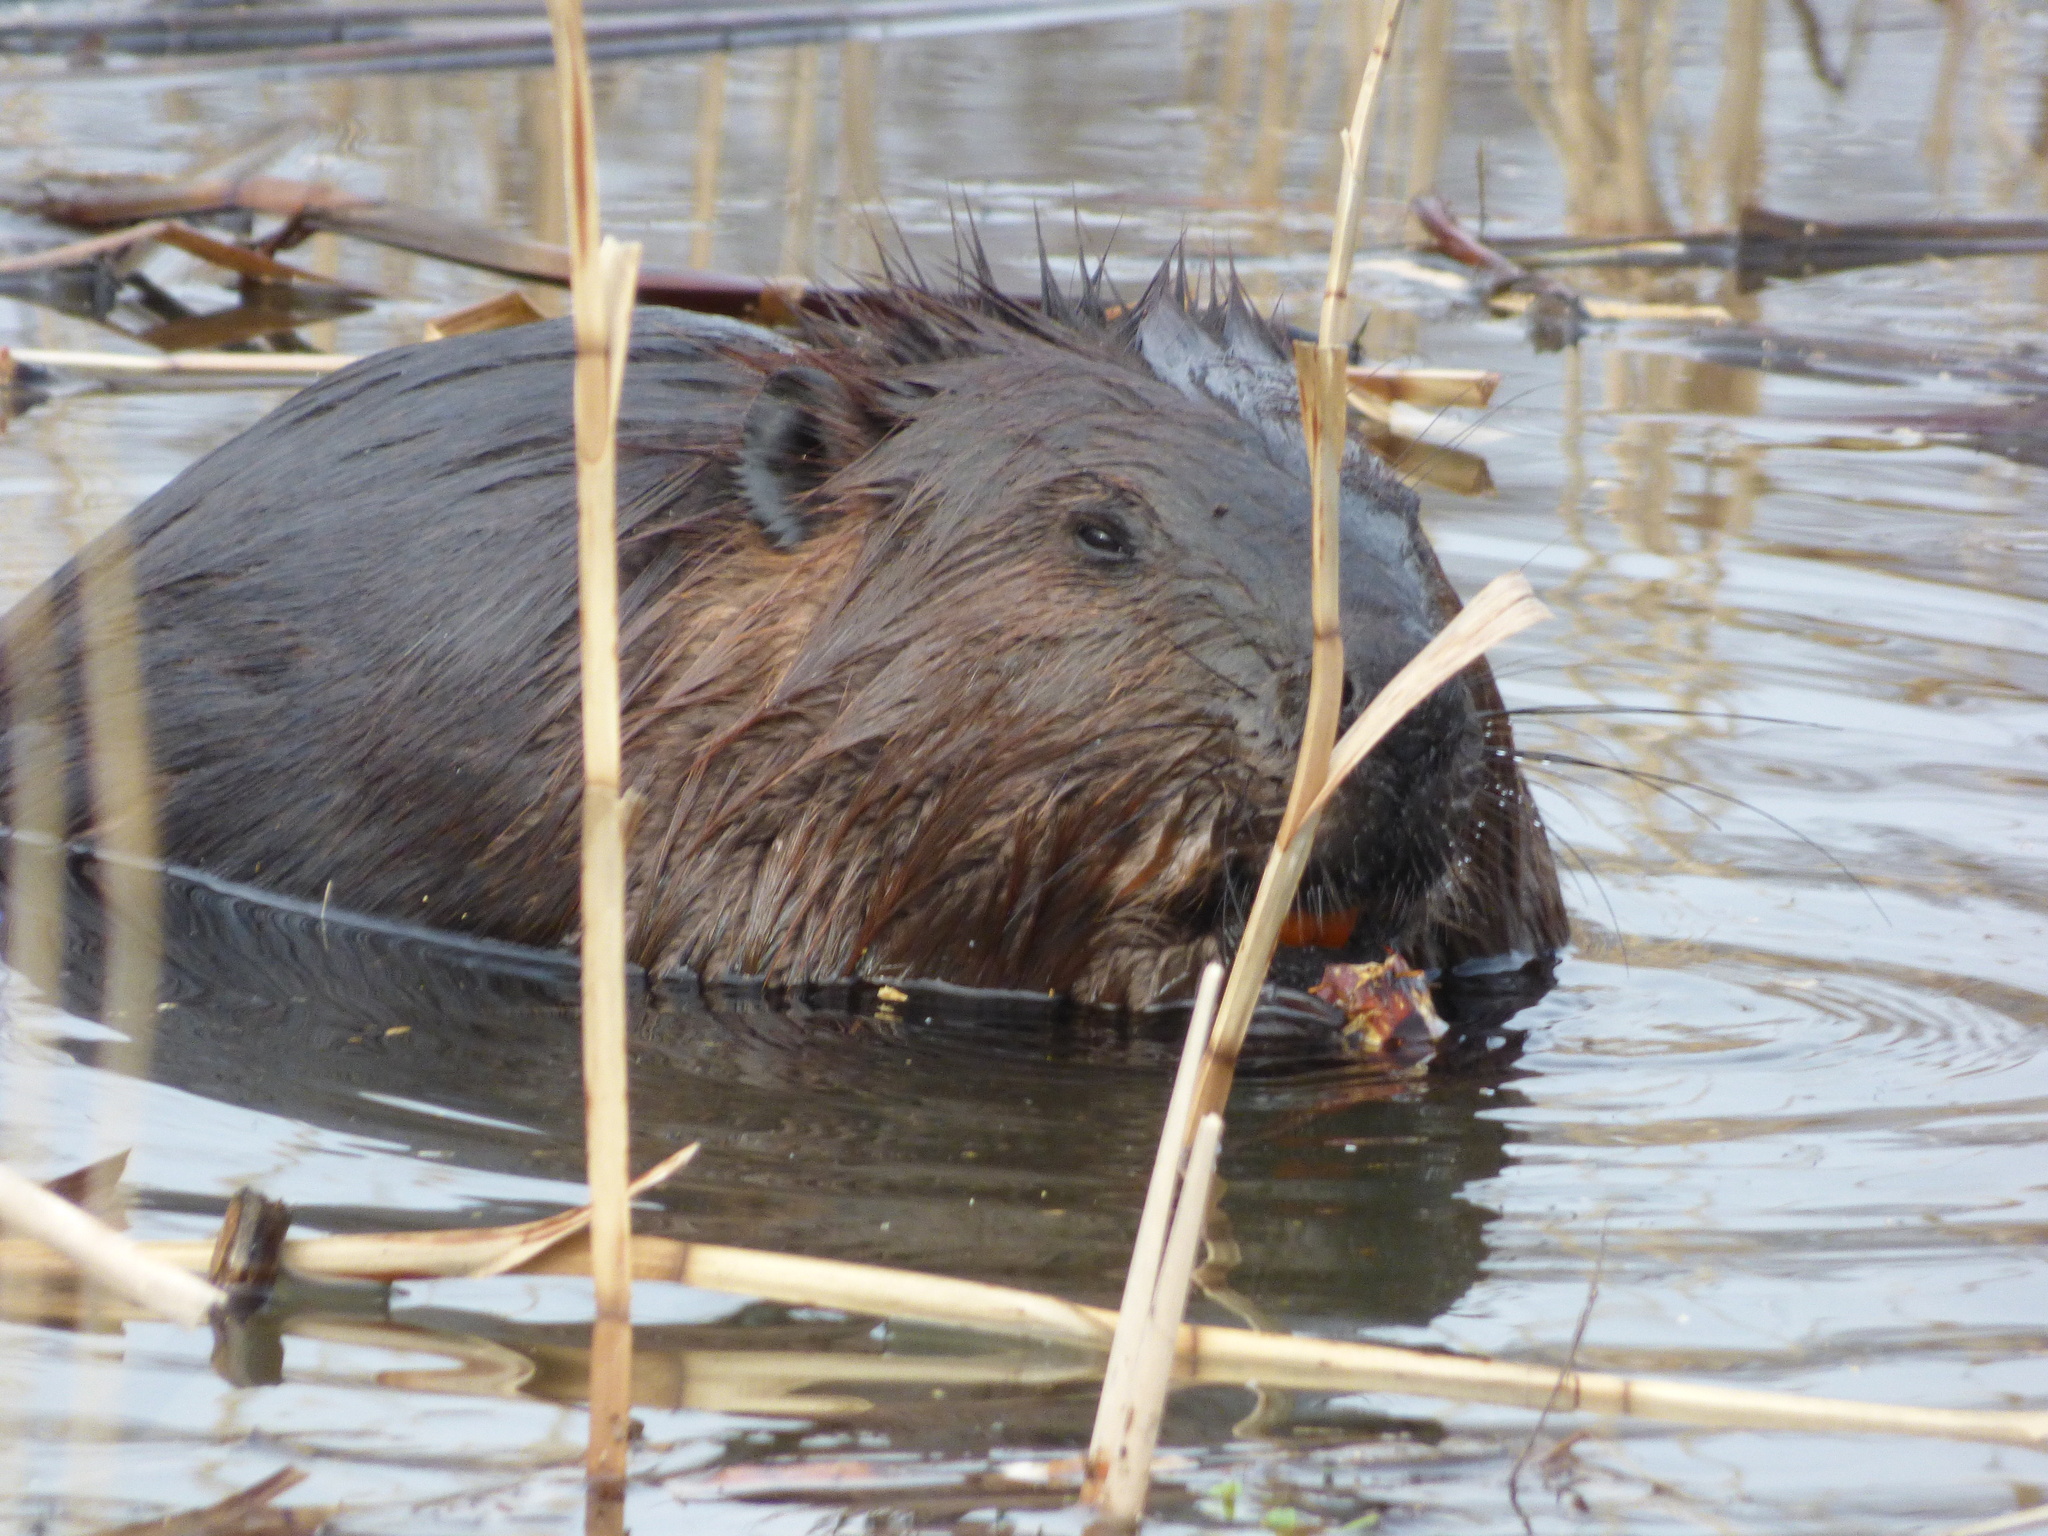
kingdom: Animalia
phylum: Chordata
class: Mammalia
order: Rodentia
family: Castoridae
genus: Castor
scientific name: Castor canadensis
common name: American beaver
